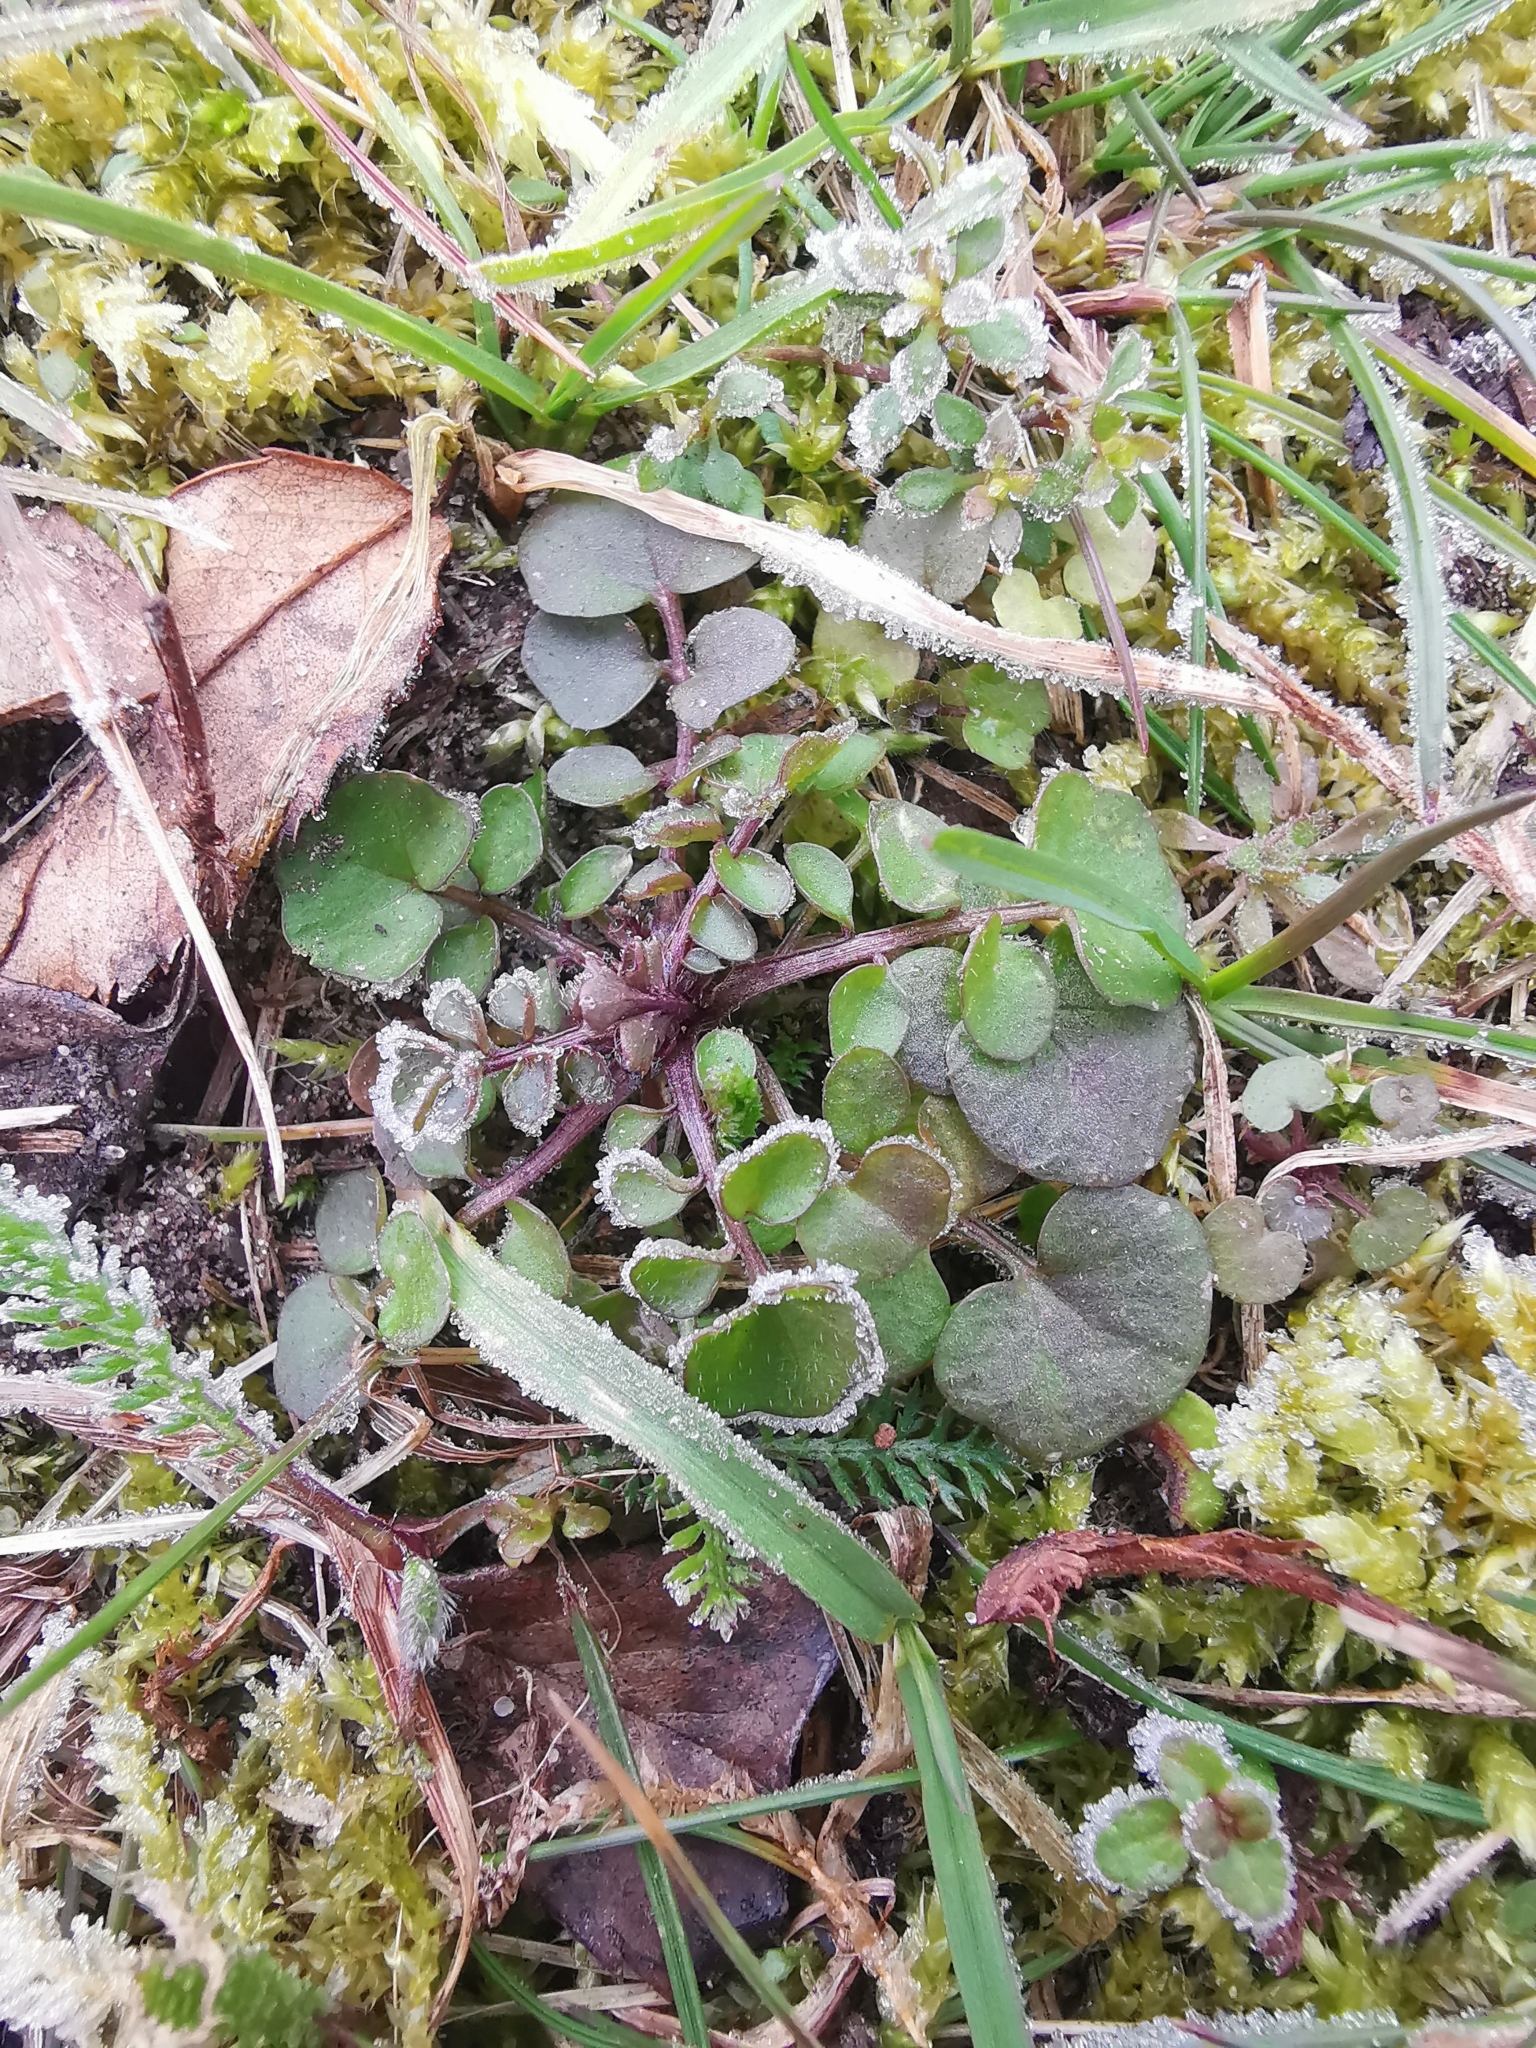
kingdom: Plantae
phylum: Tracheophyta
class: Magnoliopsida
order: Brassicales
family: Brassicaceae
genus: Cardamine
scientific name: Cardamine hirsuta
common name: Hairy bittercress
